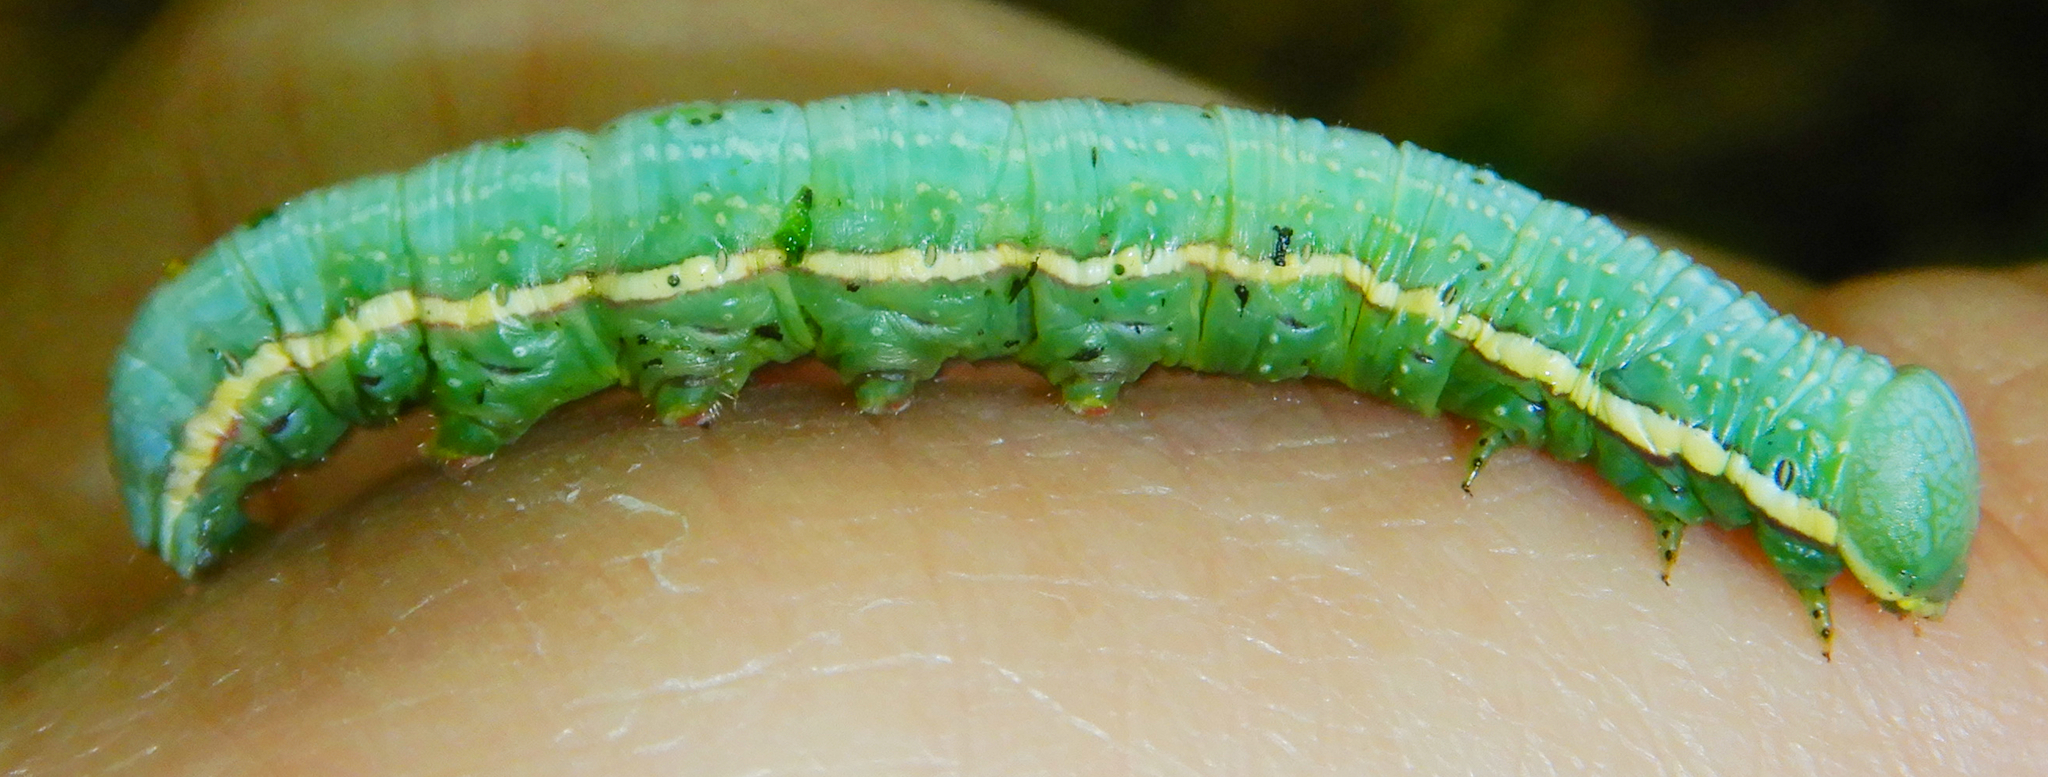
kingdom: Animalia
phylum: Arthropoda
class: Insecta
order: Lepidoptera
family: Notodontidae
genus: Paraeschra
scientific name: Paraeschra georgica
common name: Georgian prominent
